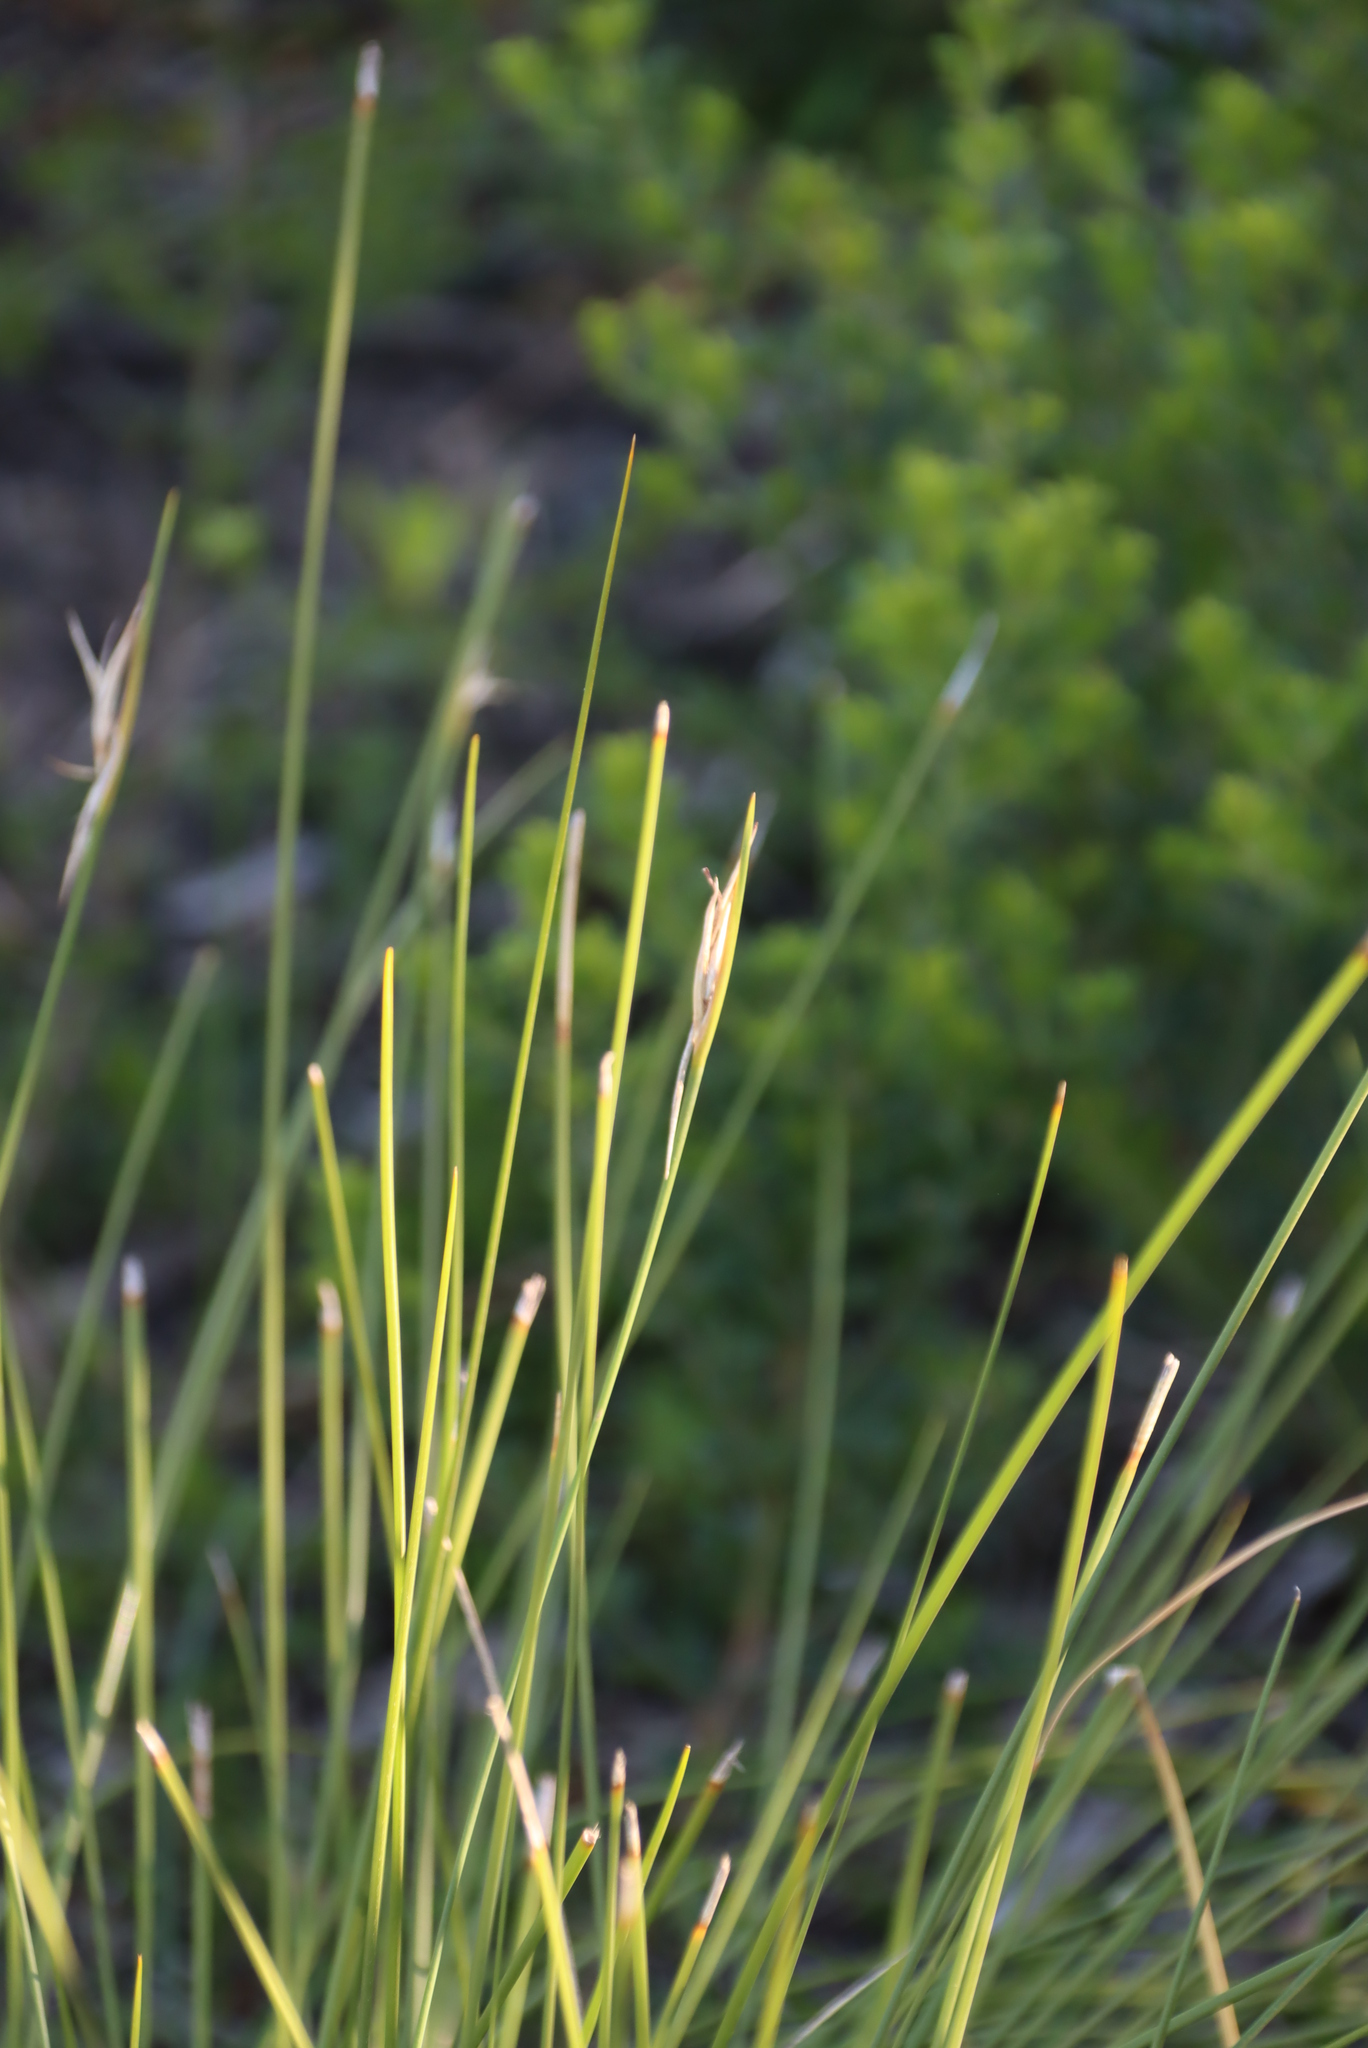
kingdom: Plantae
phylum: Tracheophyta
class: Liliopsida
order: Poales
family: Cyperaceae
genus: Schoenus
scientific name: Schoenus gracillimus
